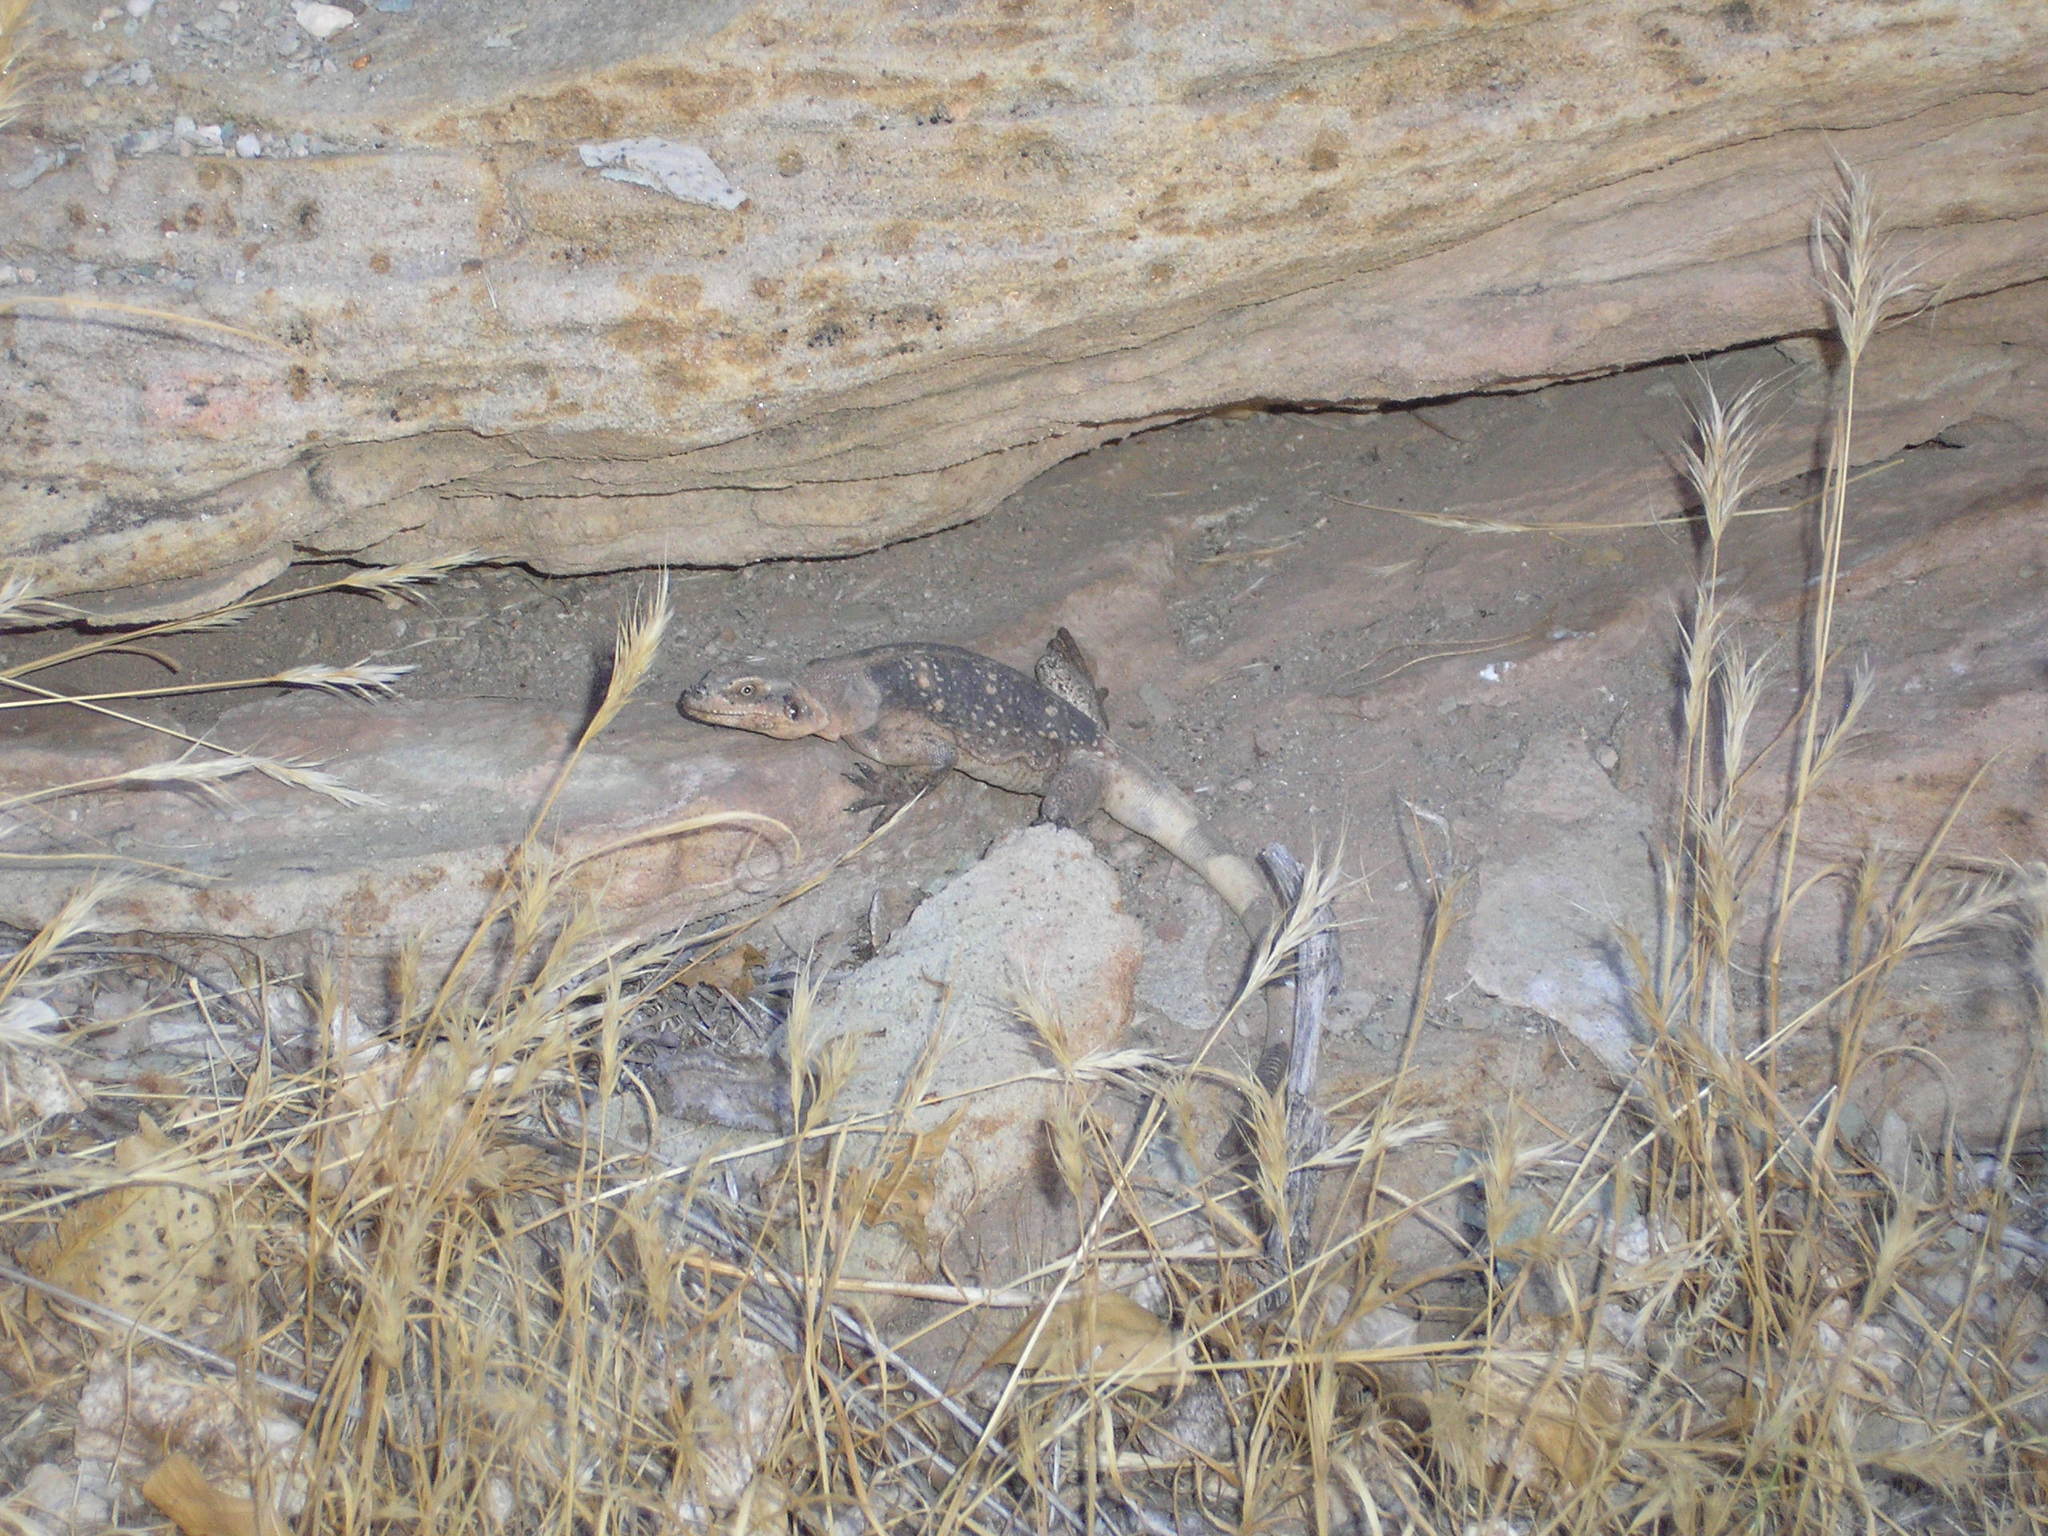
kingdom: Animalia
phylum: Chordata
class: Squamata
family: Iguanidae
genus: Sauromalus
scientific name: Sauromalus ater
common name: Northern chuckwalla
